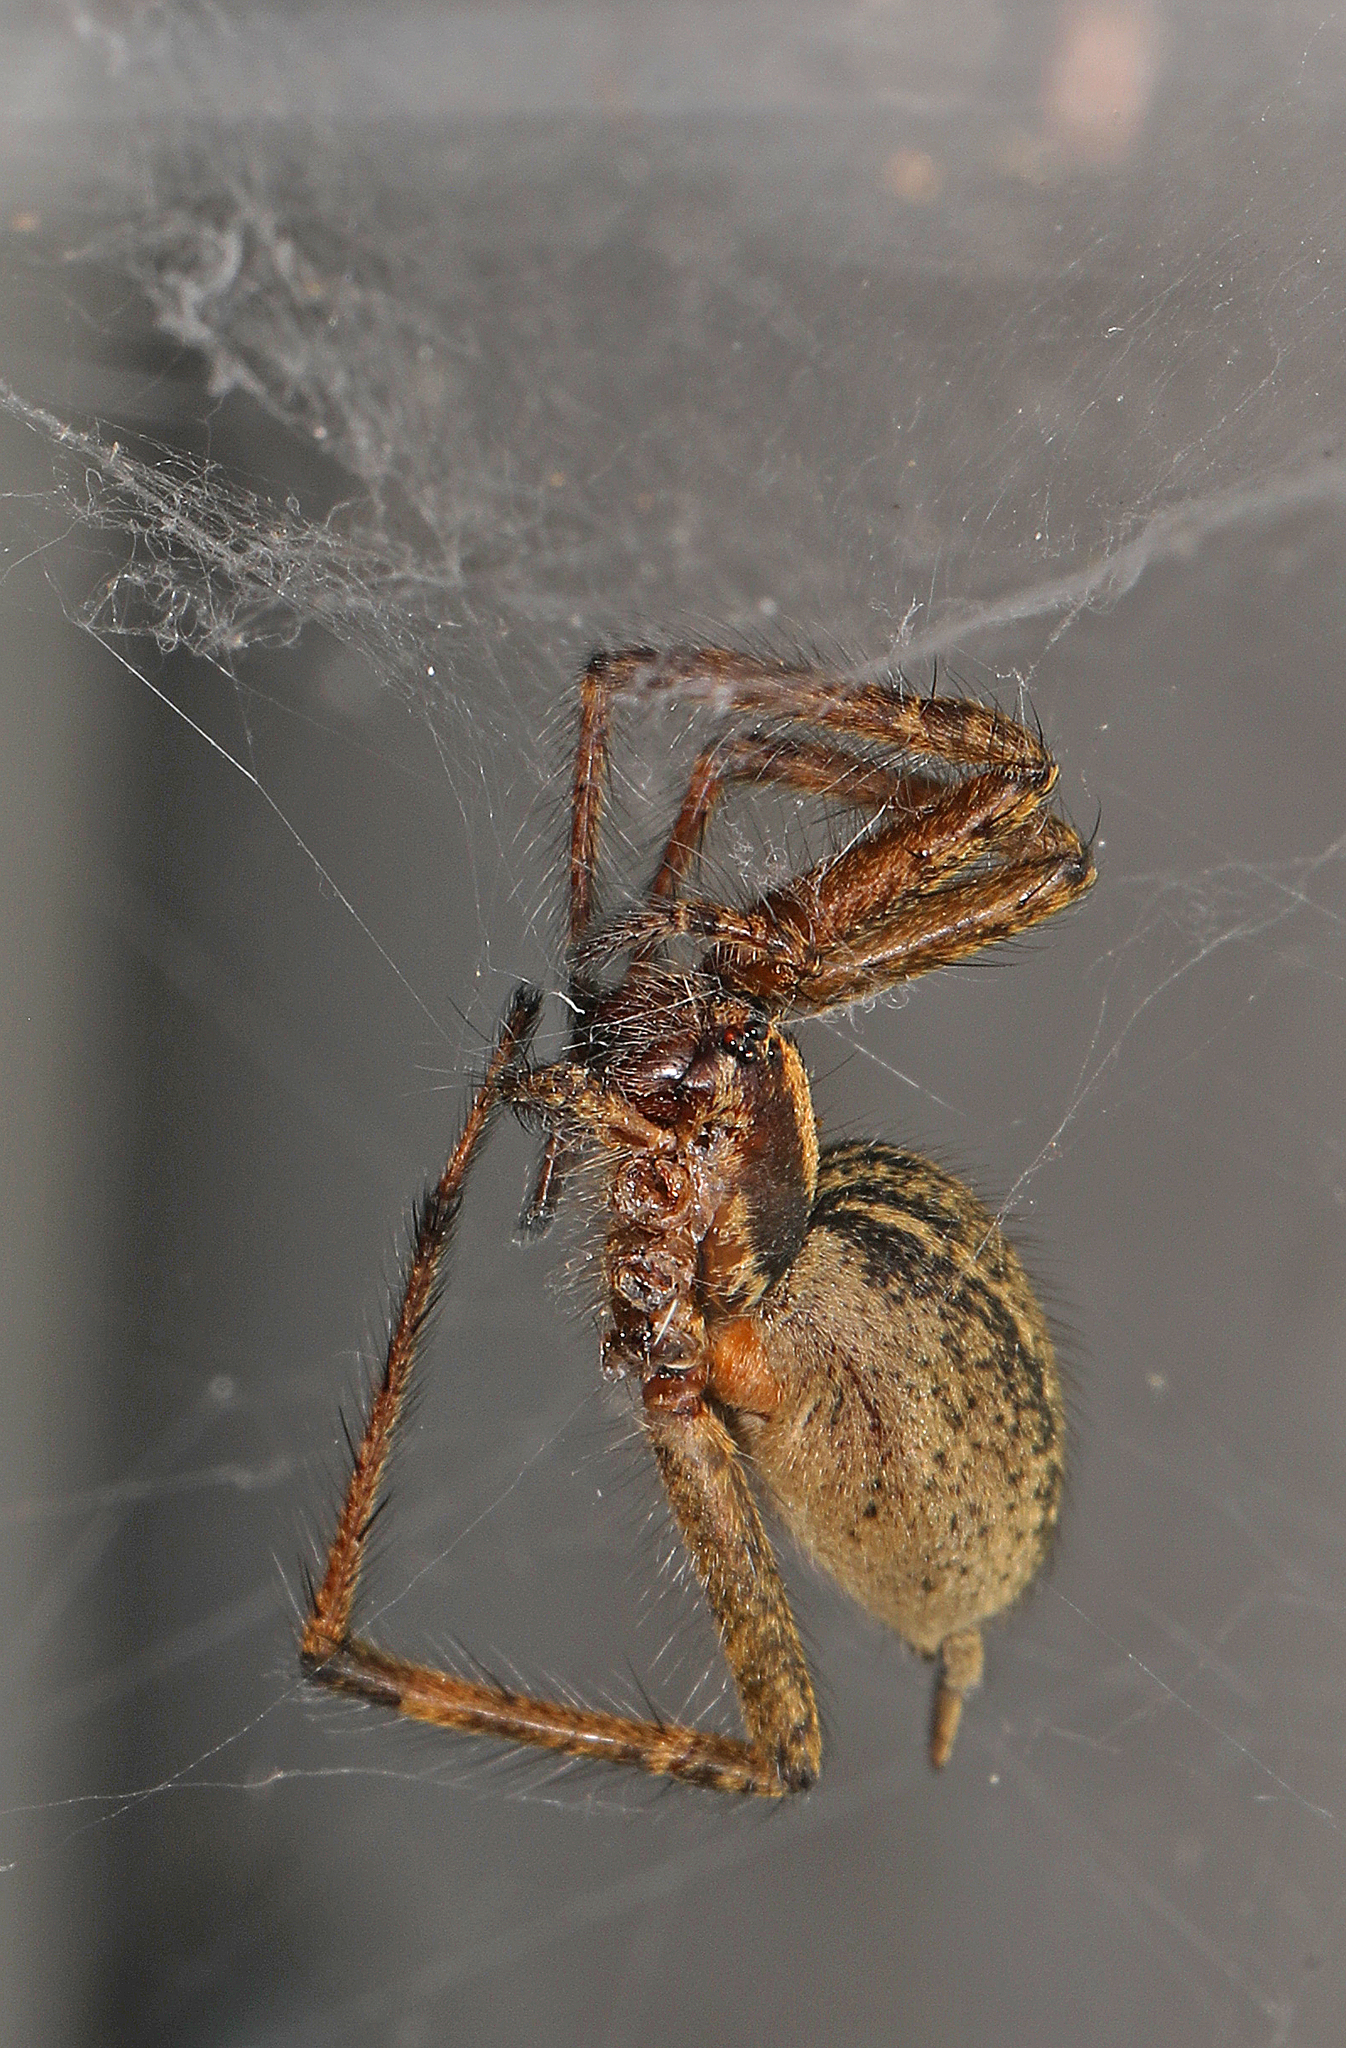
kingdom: Animalia
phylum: Arthropoda
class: Arachnida
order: Araneae
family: Agelenidae
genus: Agelenopsis
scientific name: Agelenopsis
